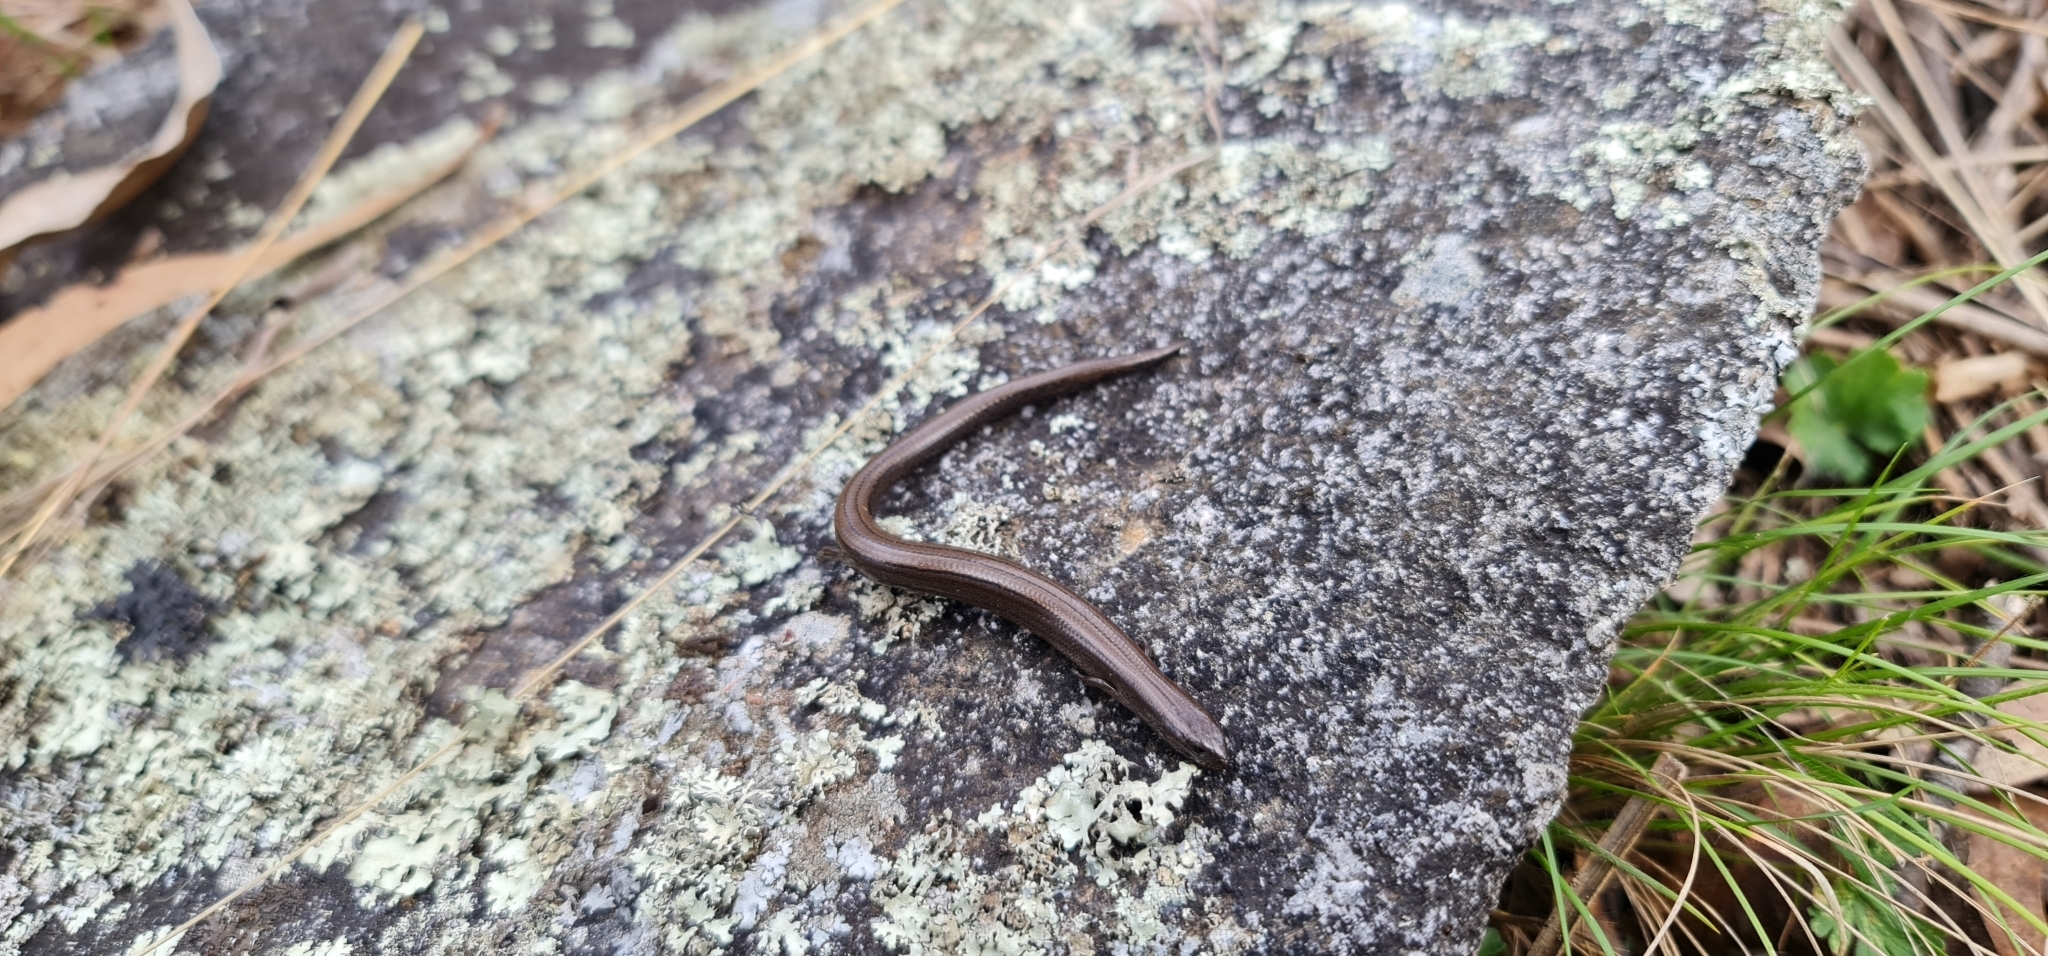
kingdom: Animalia
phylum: Chordata
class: Squamata
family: Scincidae
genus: Hemiergis
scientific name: Hemiergis talbingoensis
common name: Victoria three-toed earless skink
